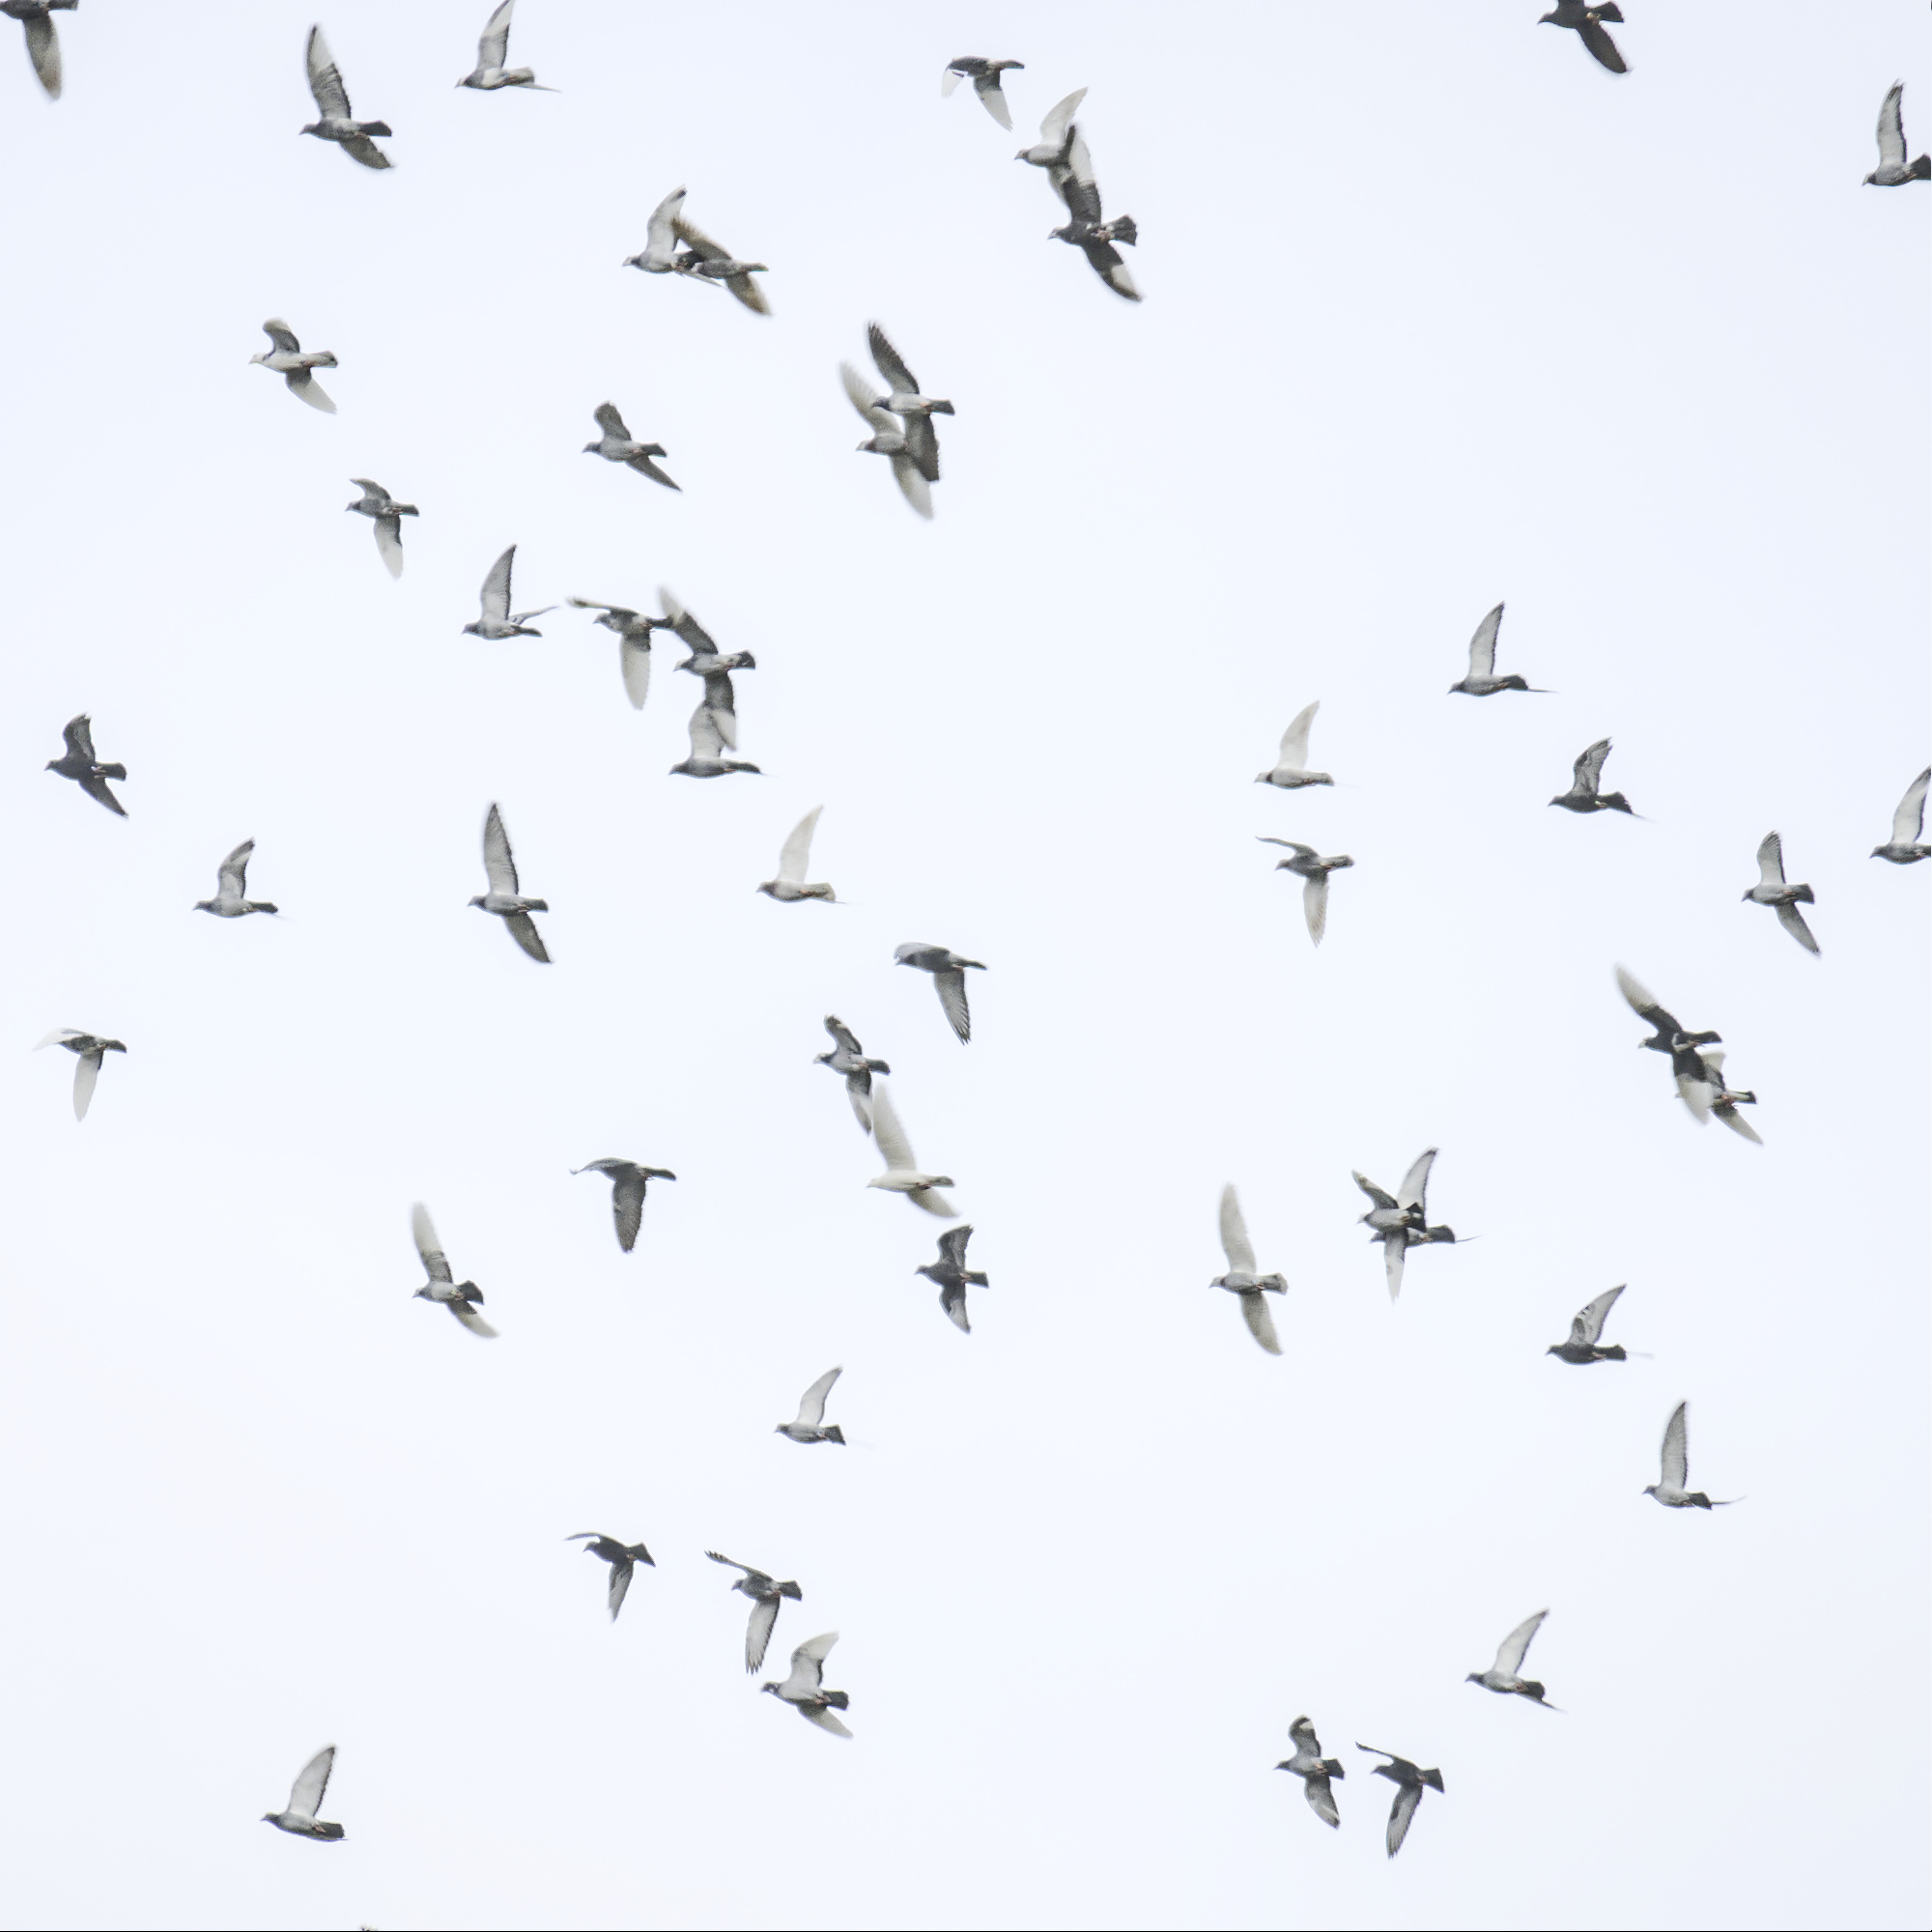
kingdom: Animalia
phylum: Chordata
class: Aves
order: Columbiformes
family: Columbidae
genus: Columba
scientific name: Columba livia
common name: Rock pigeon
